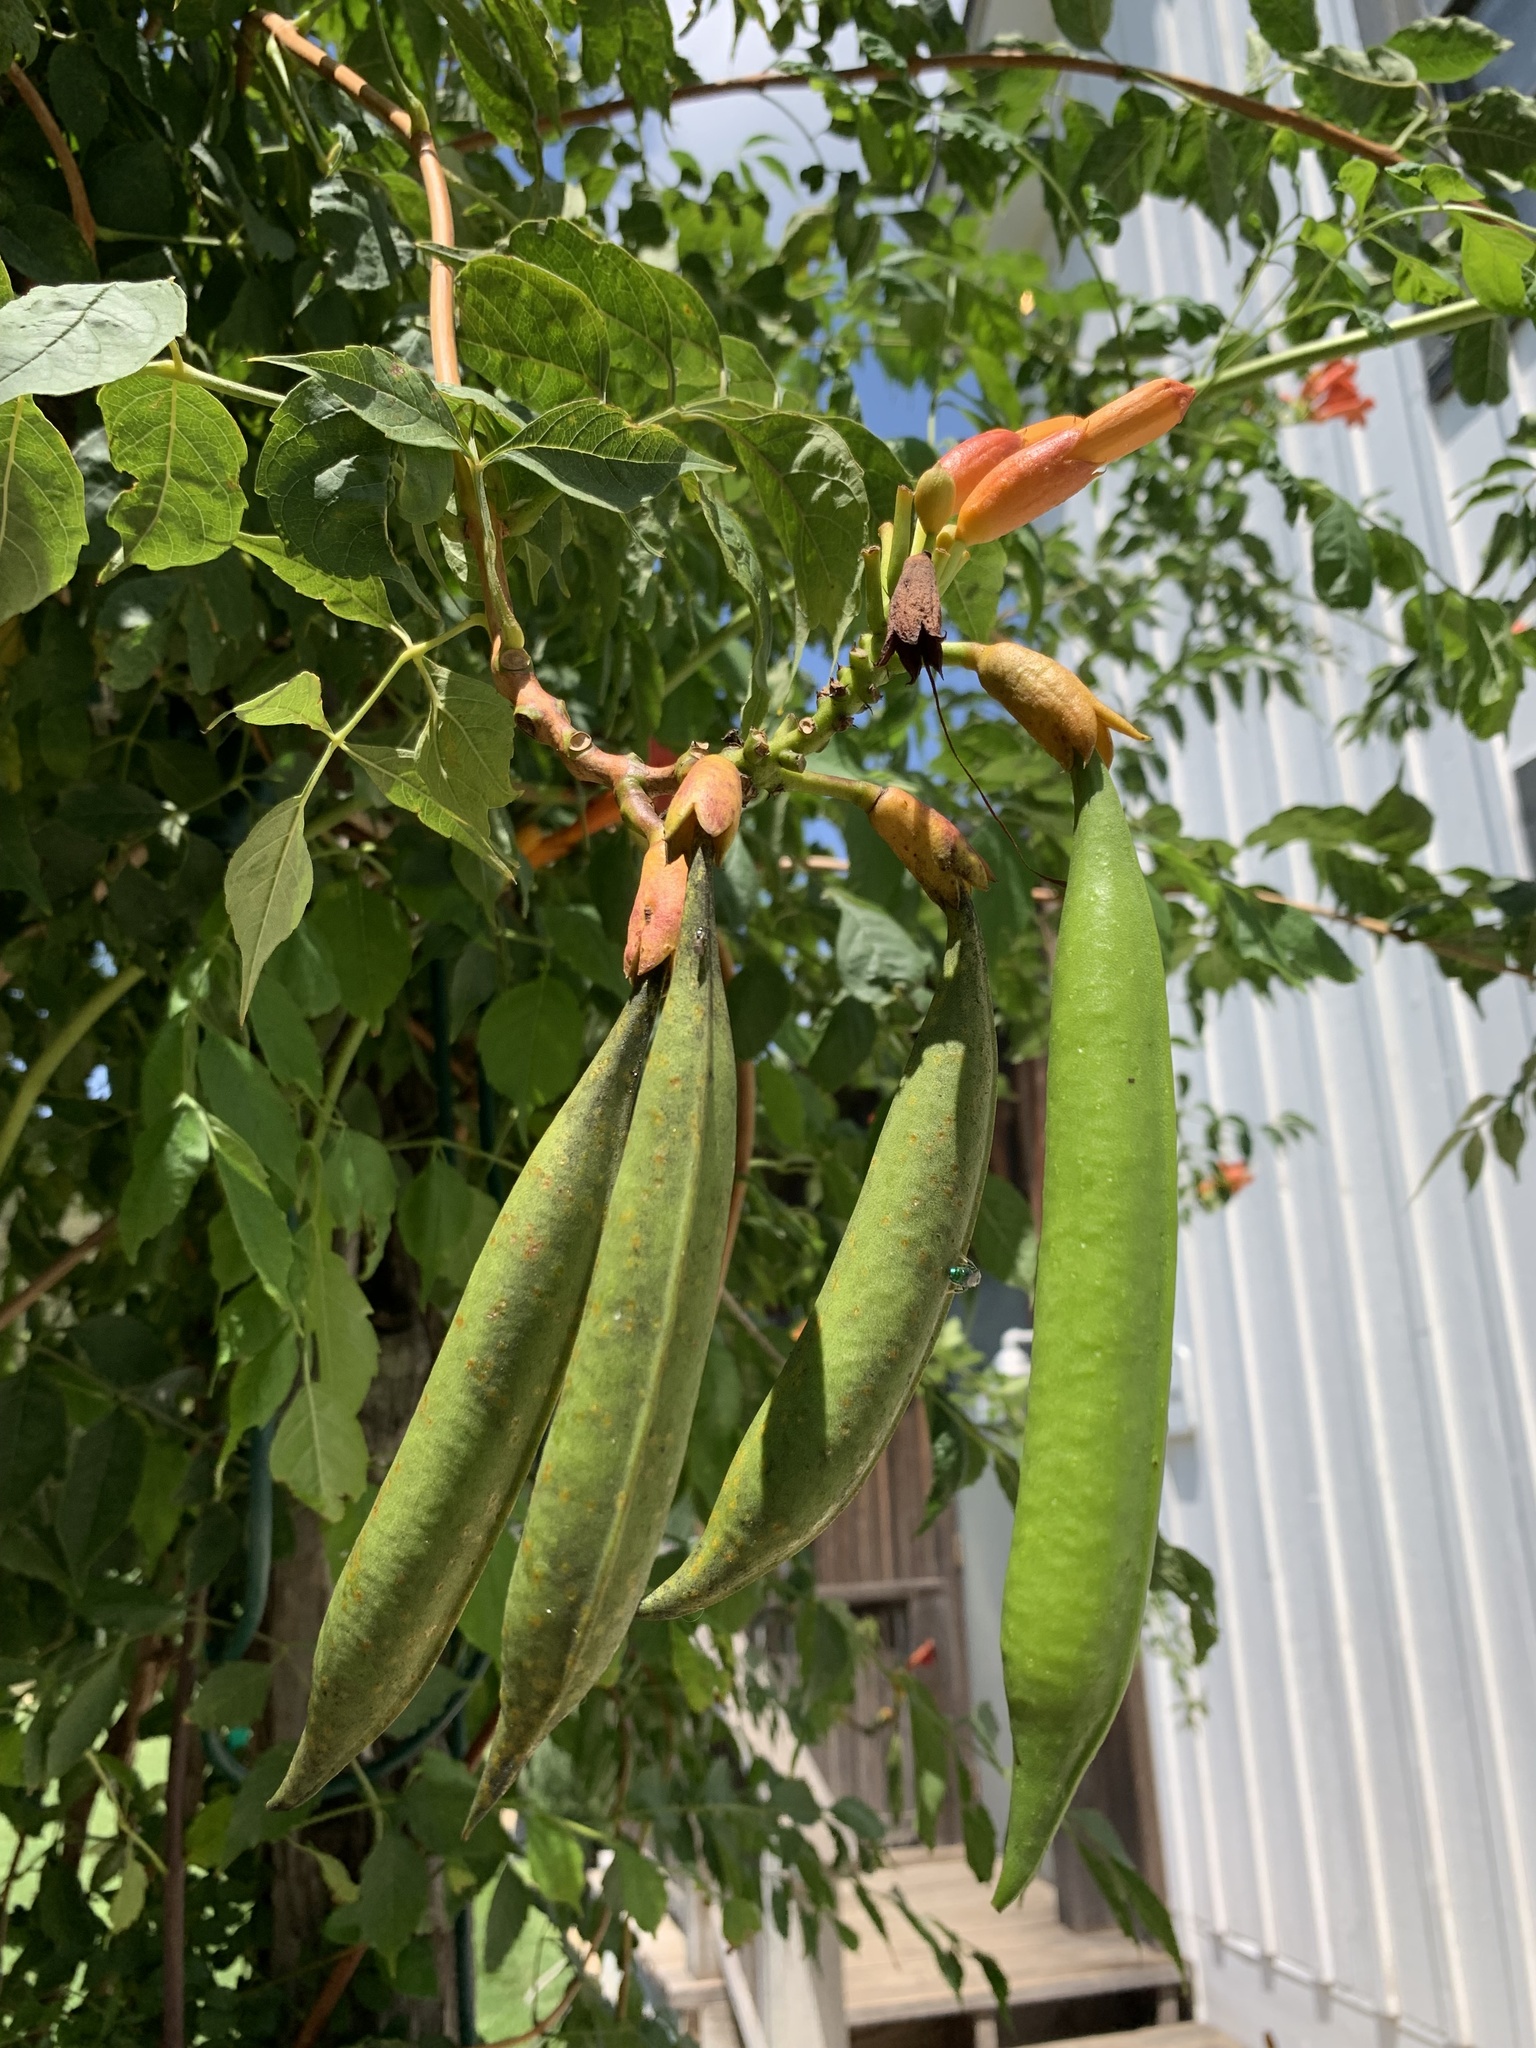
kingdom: Plantae
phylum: Tracheophyta
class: Magnoliopsida
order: Lamiales
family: Bignoniaceae
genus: Campsis
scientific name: Campsis radicans
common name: Trumpet-creeper
